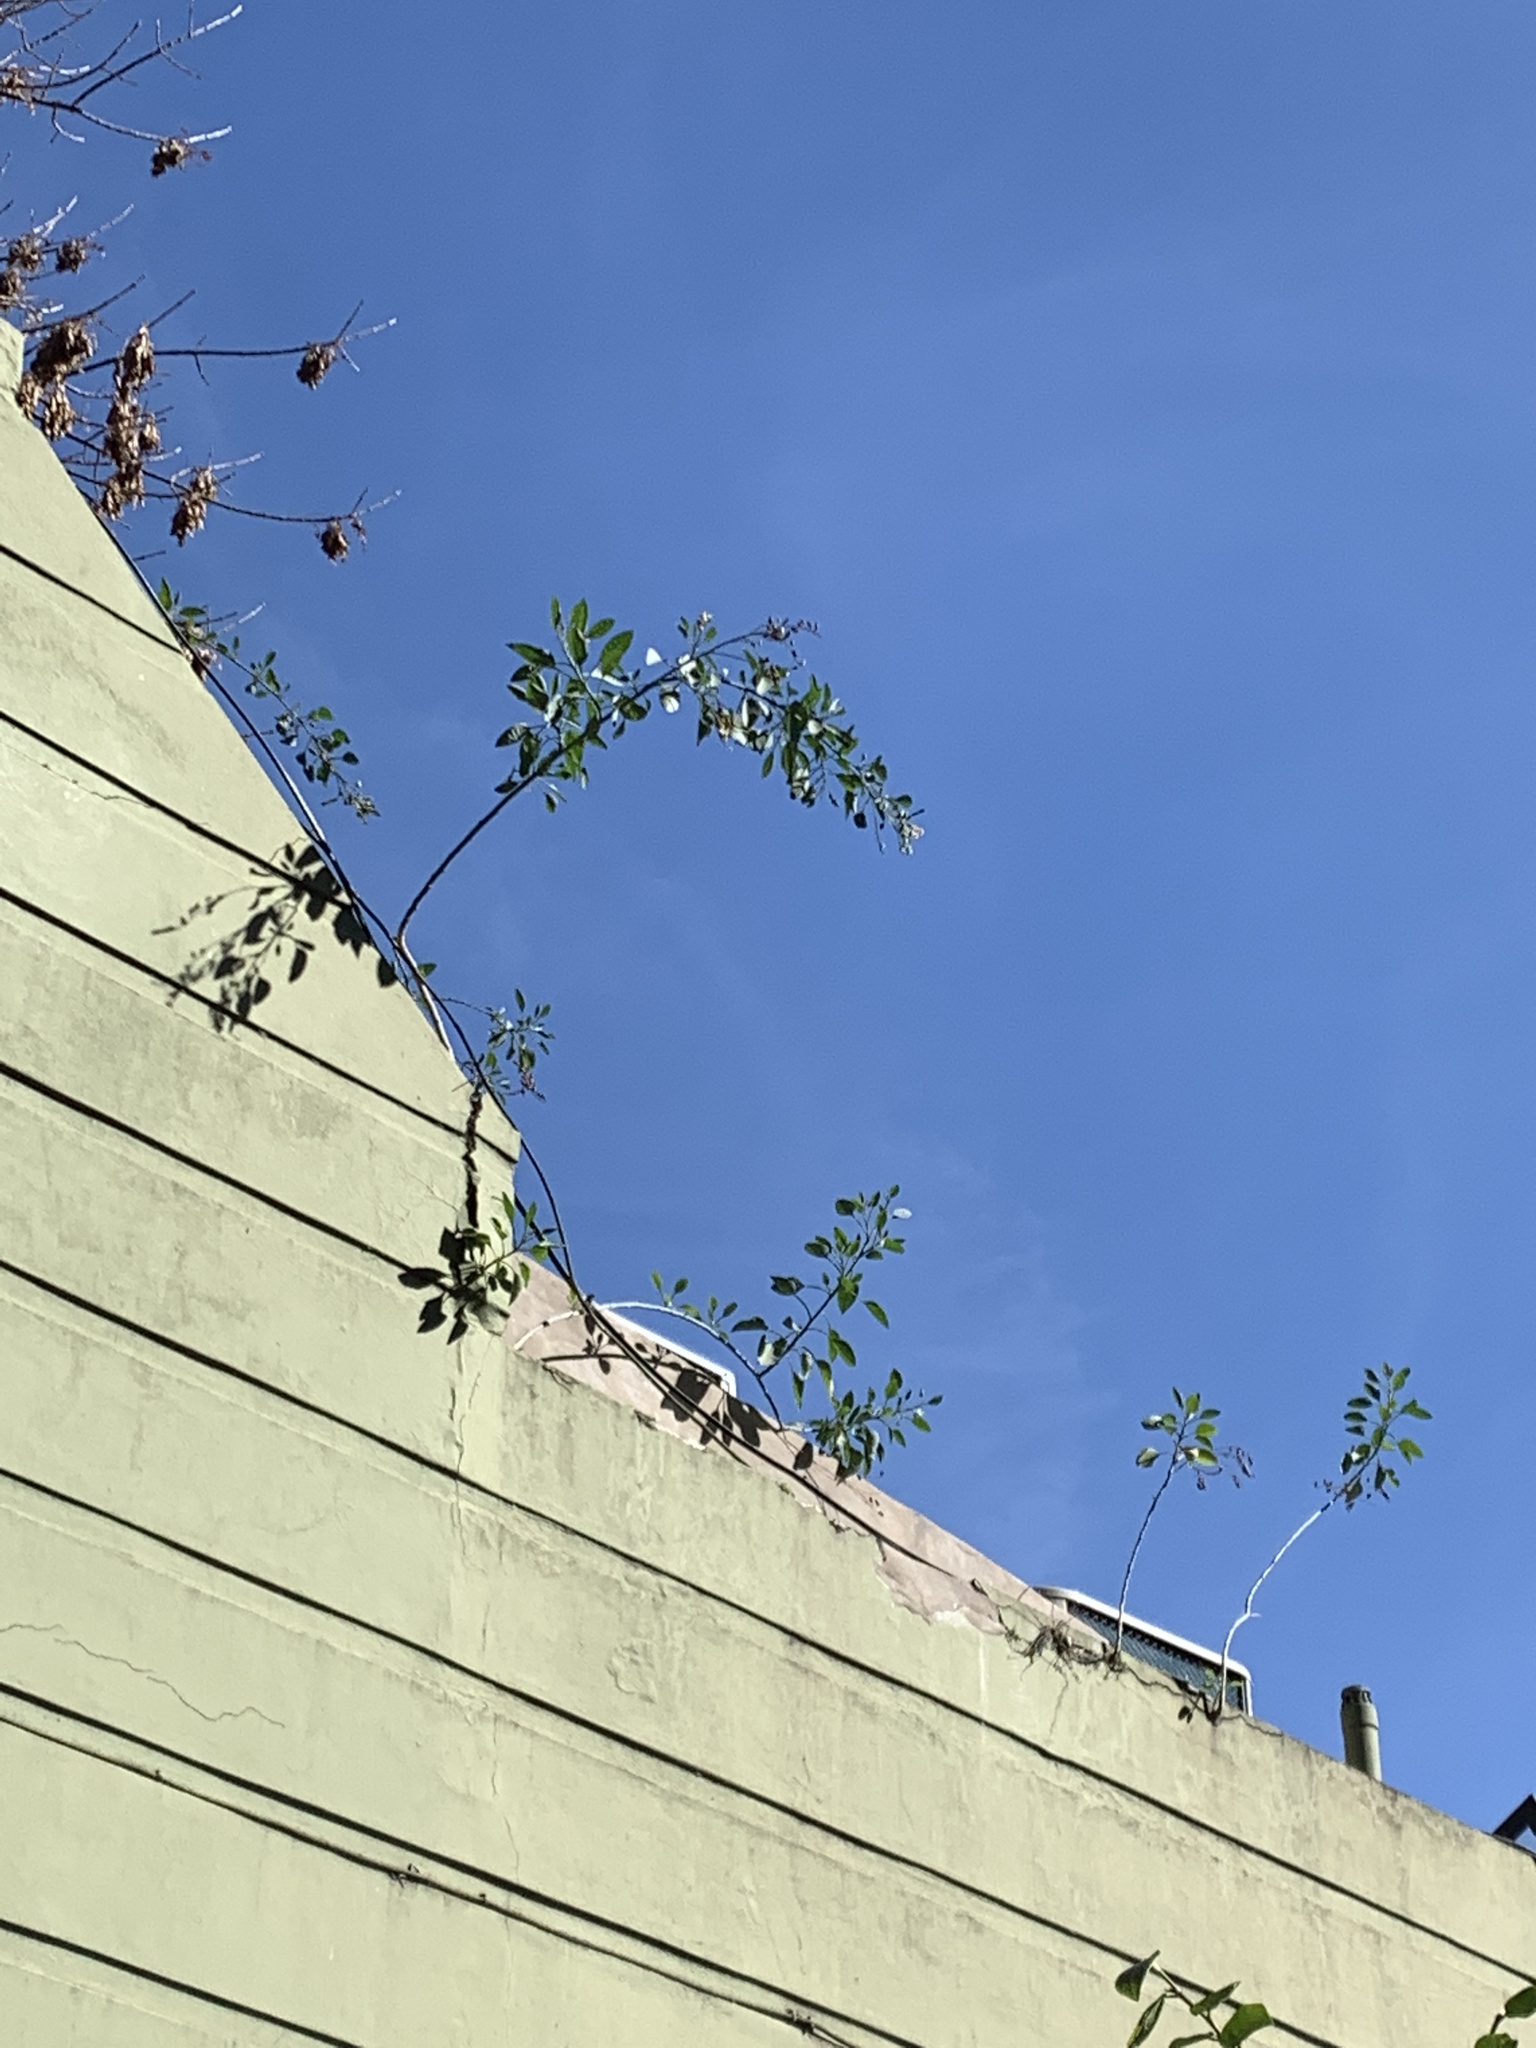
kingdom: Plantae
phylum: Tracheophyta
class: Magnoliopsida
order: Solanales
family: Solanaceae
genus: Nicotiana
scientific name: Nicotiana glauca
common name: Tree tobacco
